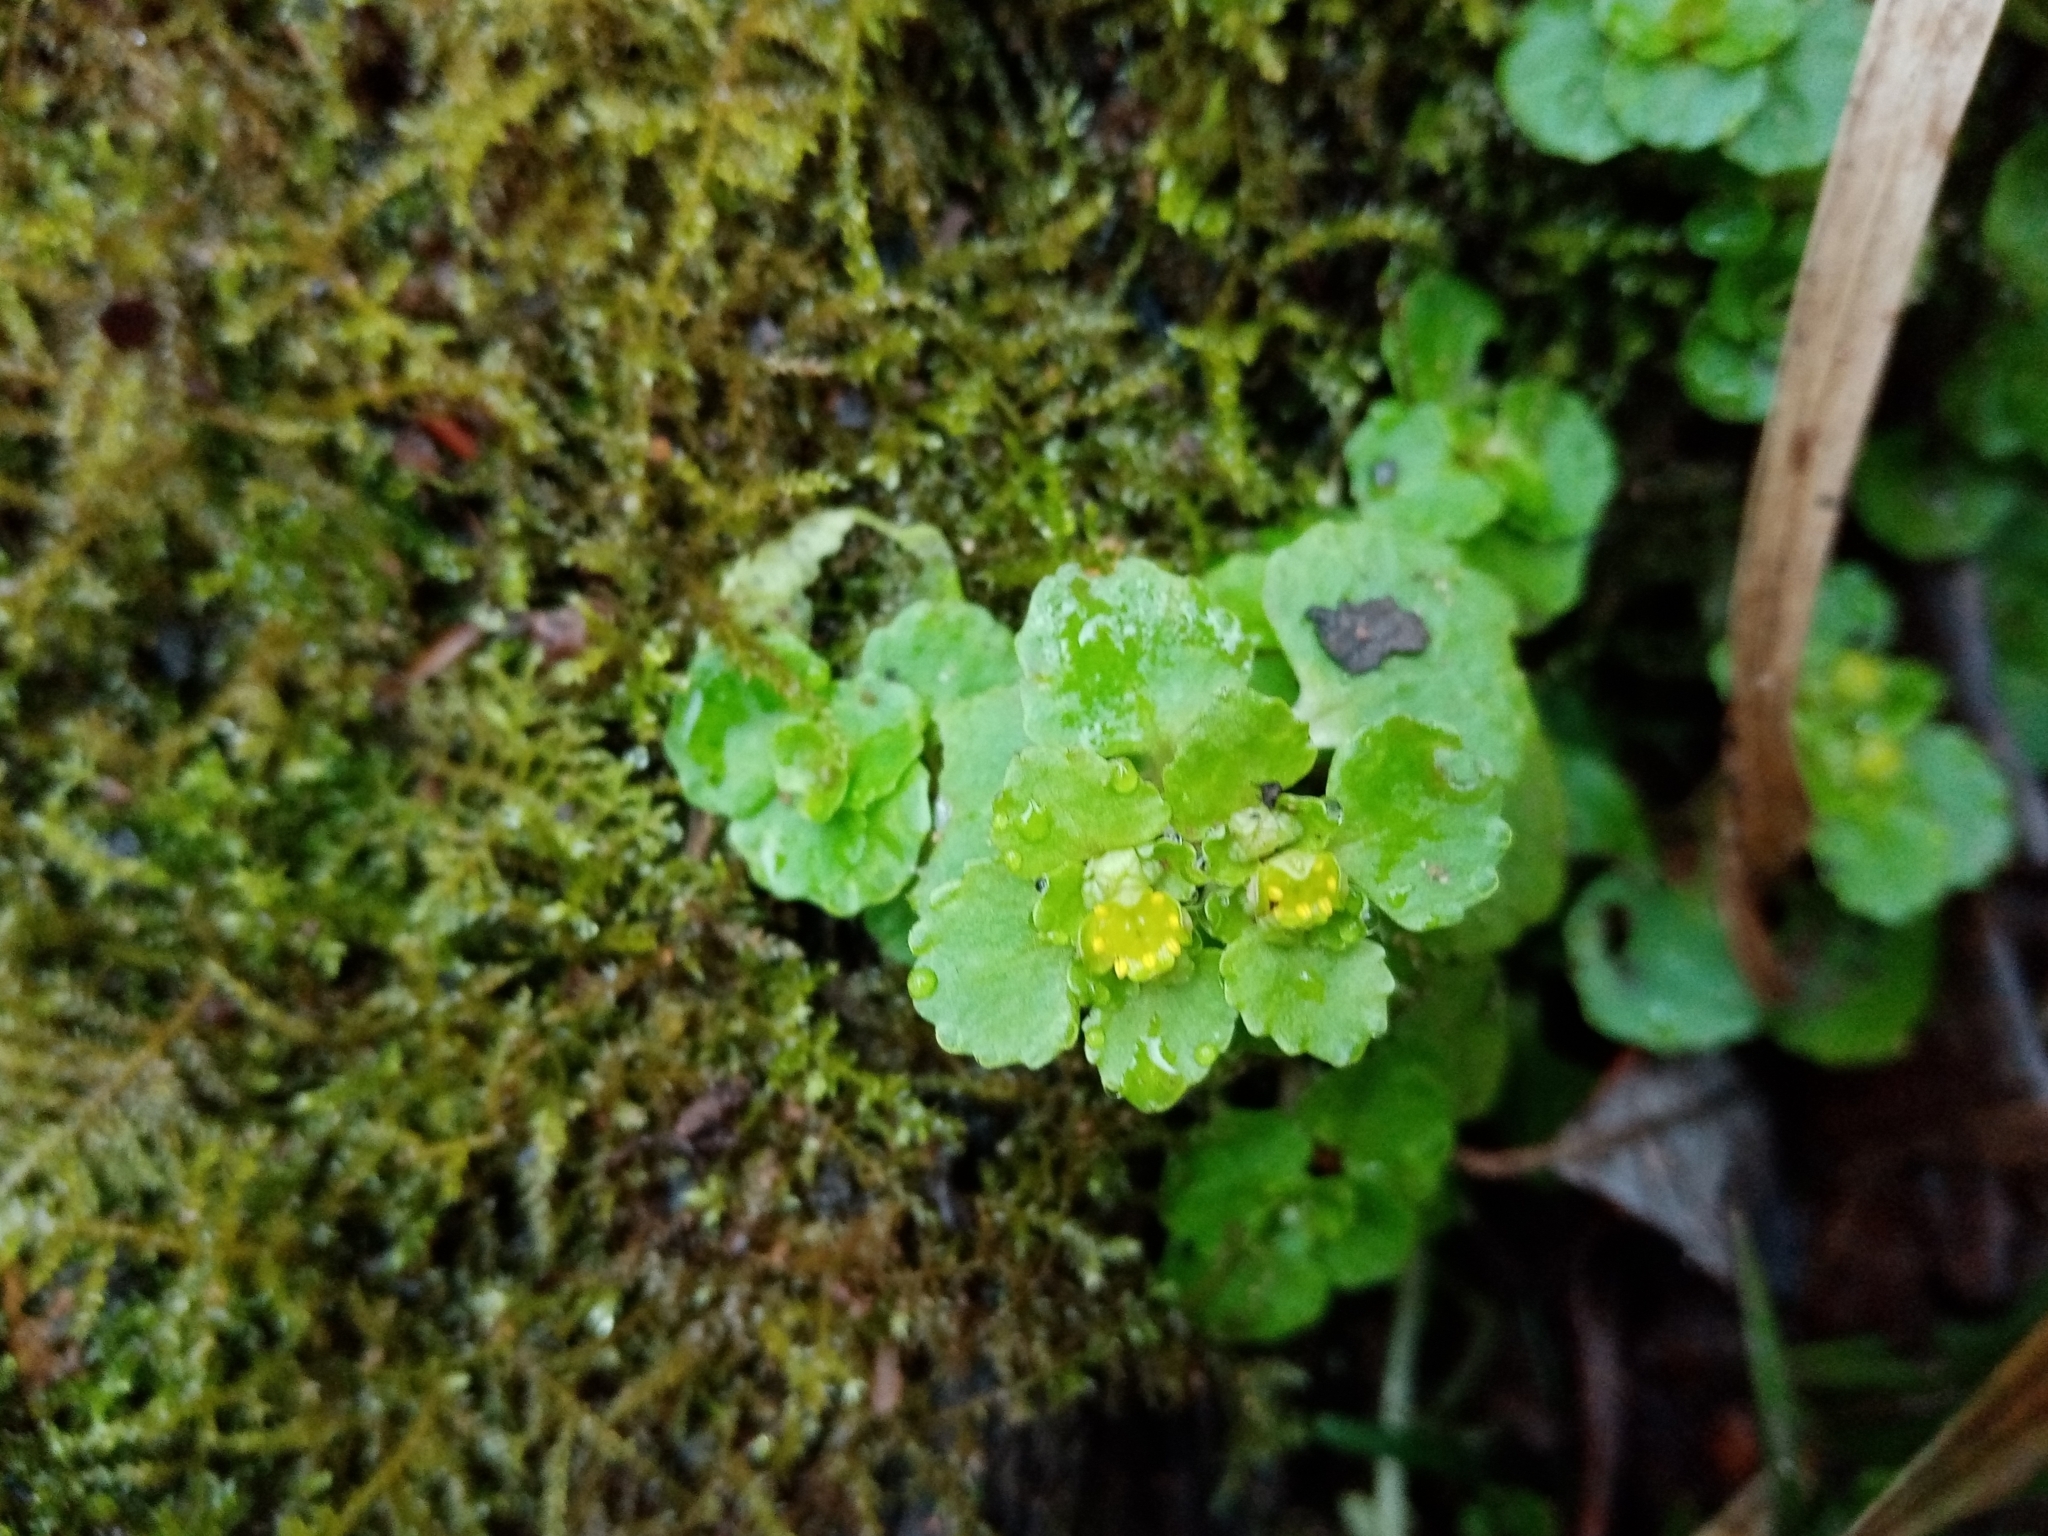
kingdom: Plantae
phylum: Tracheophyta
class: Magnoliopsida
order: Saxifragales
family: Saxifragaceae
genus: Chrysosplenium
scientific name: Chrysosplenium oppositifolium
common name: Opposite-leaved golden-saxifrage
